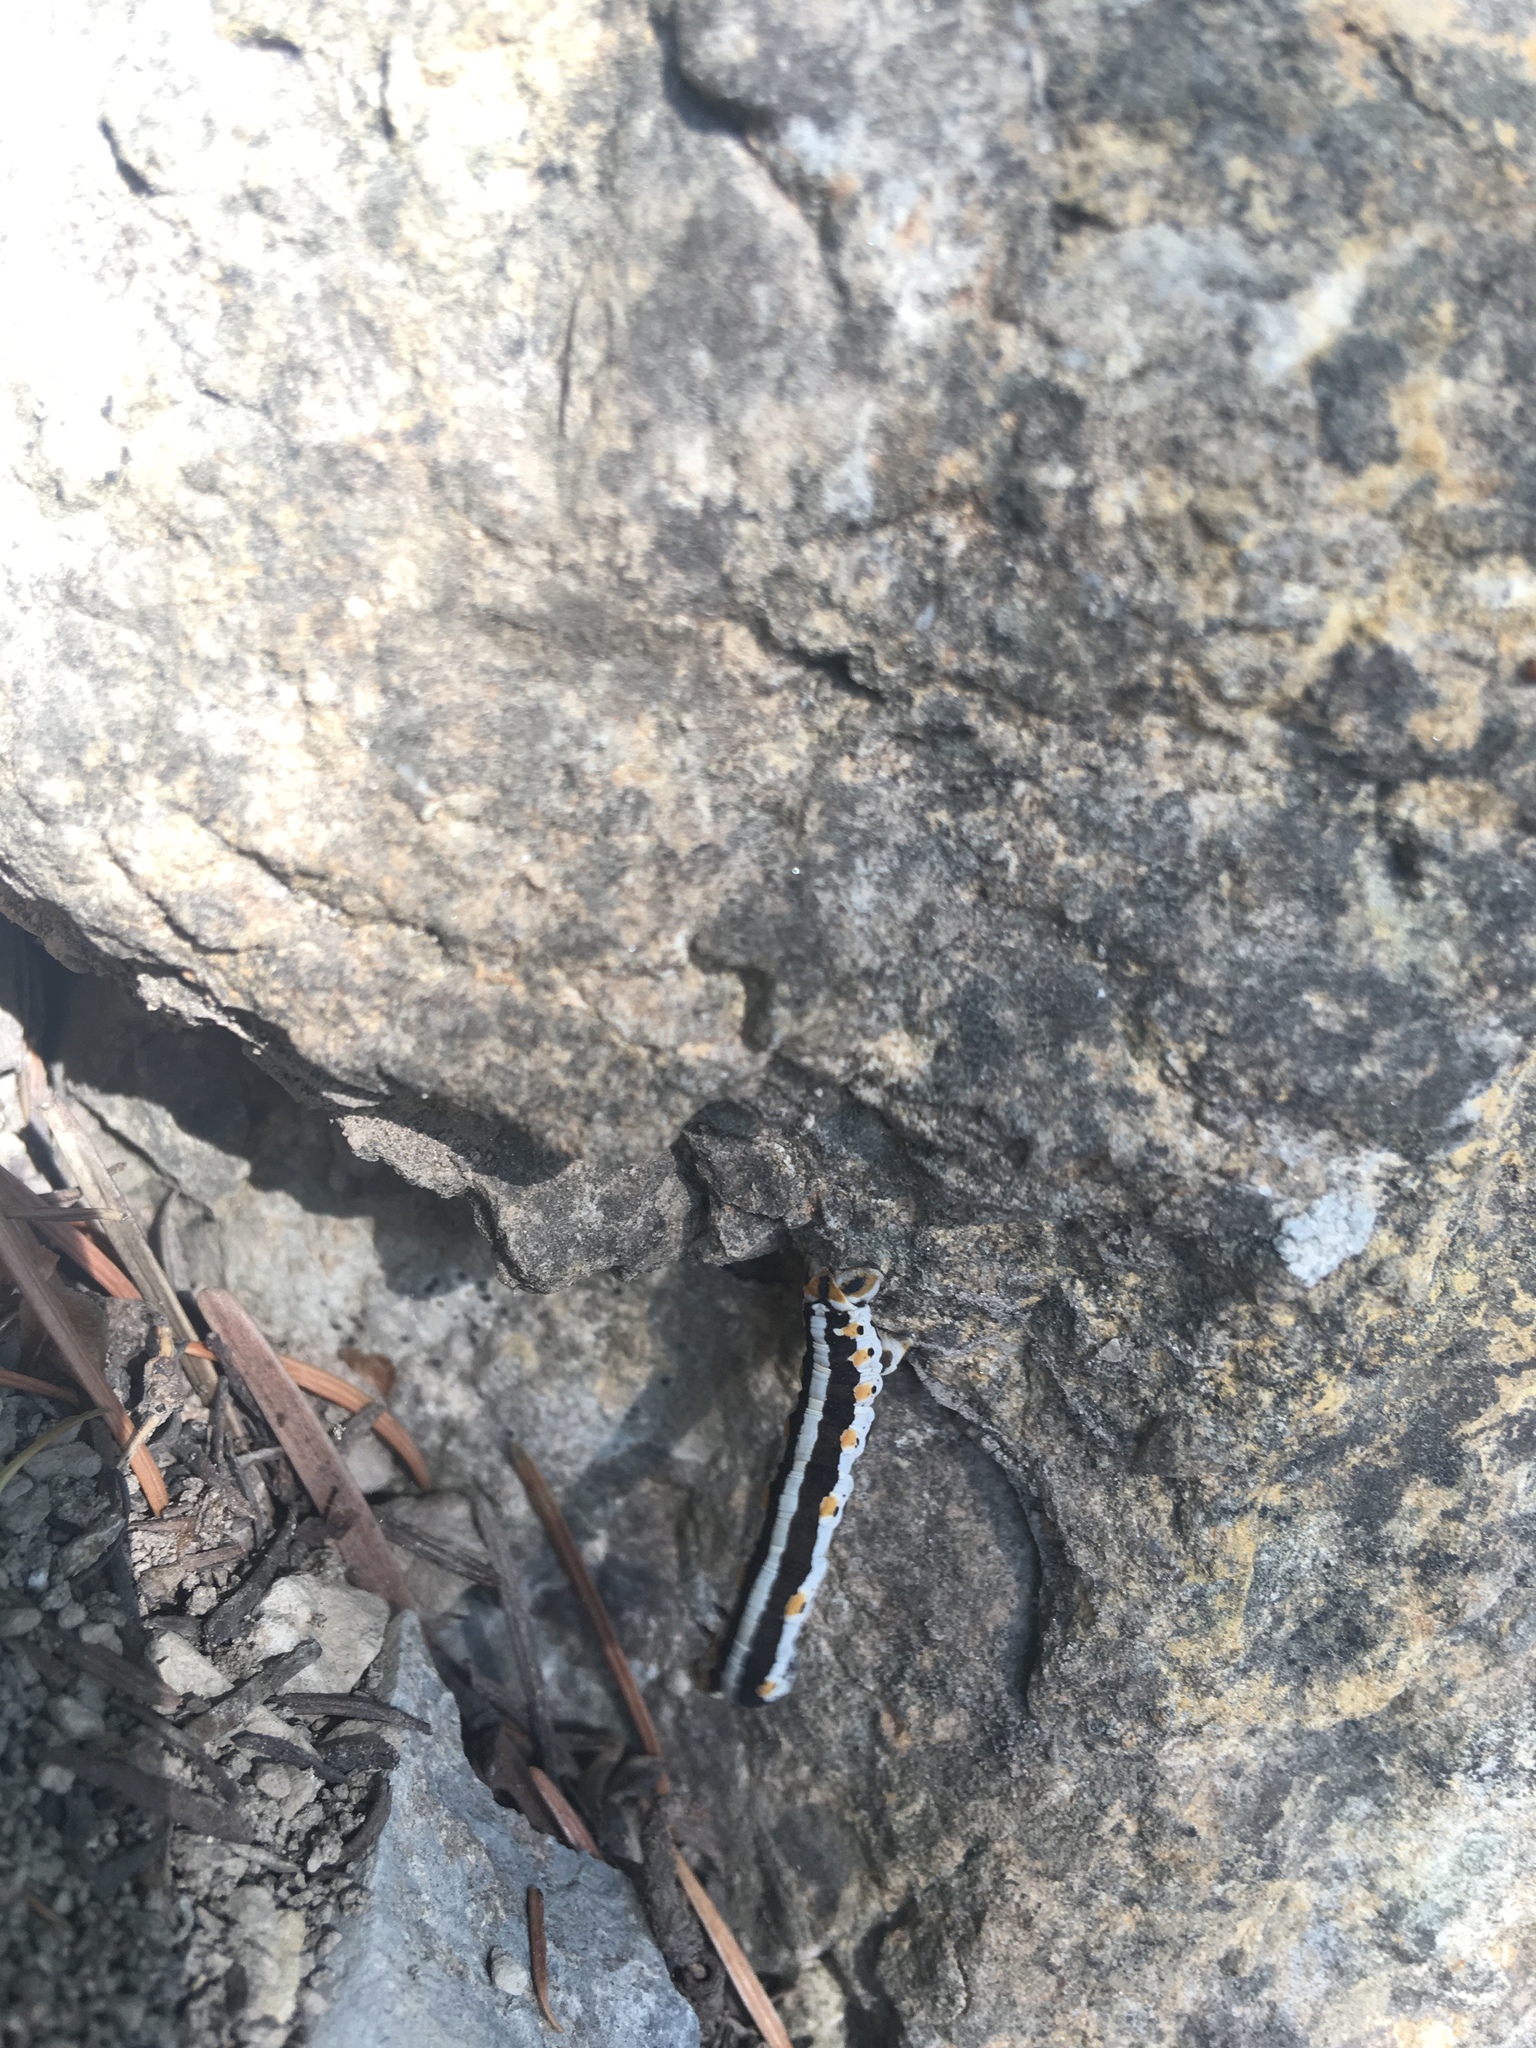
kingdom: Animalia
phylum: Arthropoda
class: Insecta
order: Lepidoptera
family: Geometridae
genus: Meris
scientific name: Meris alticola
